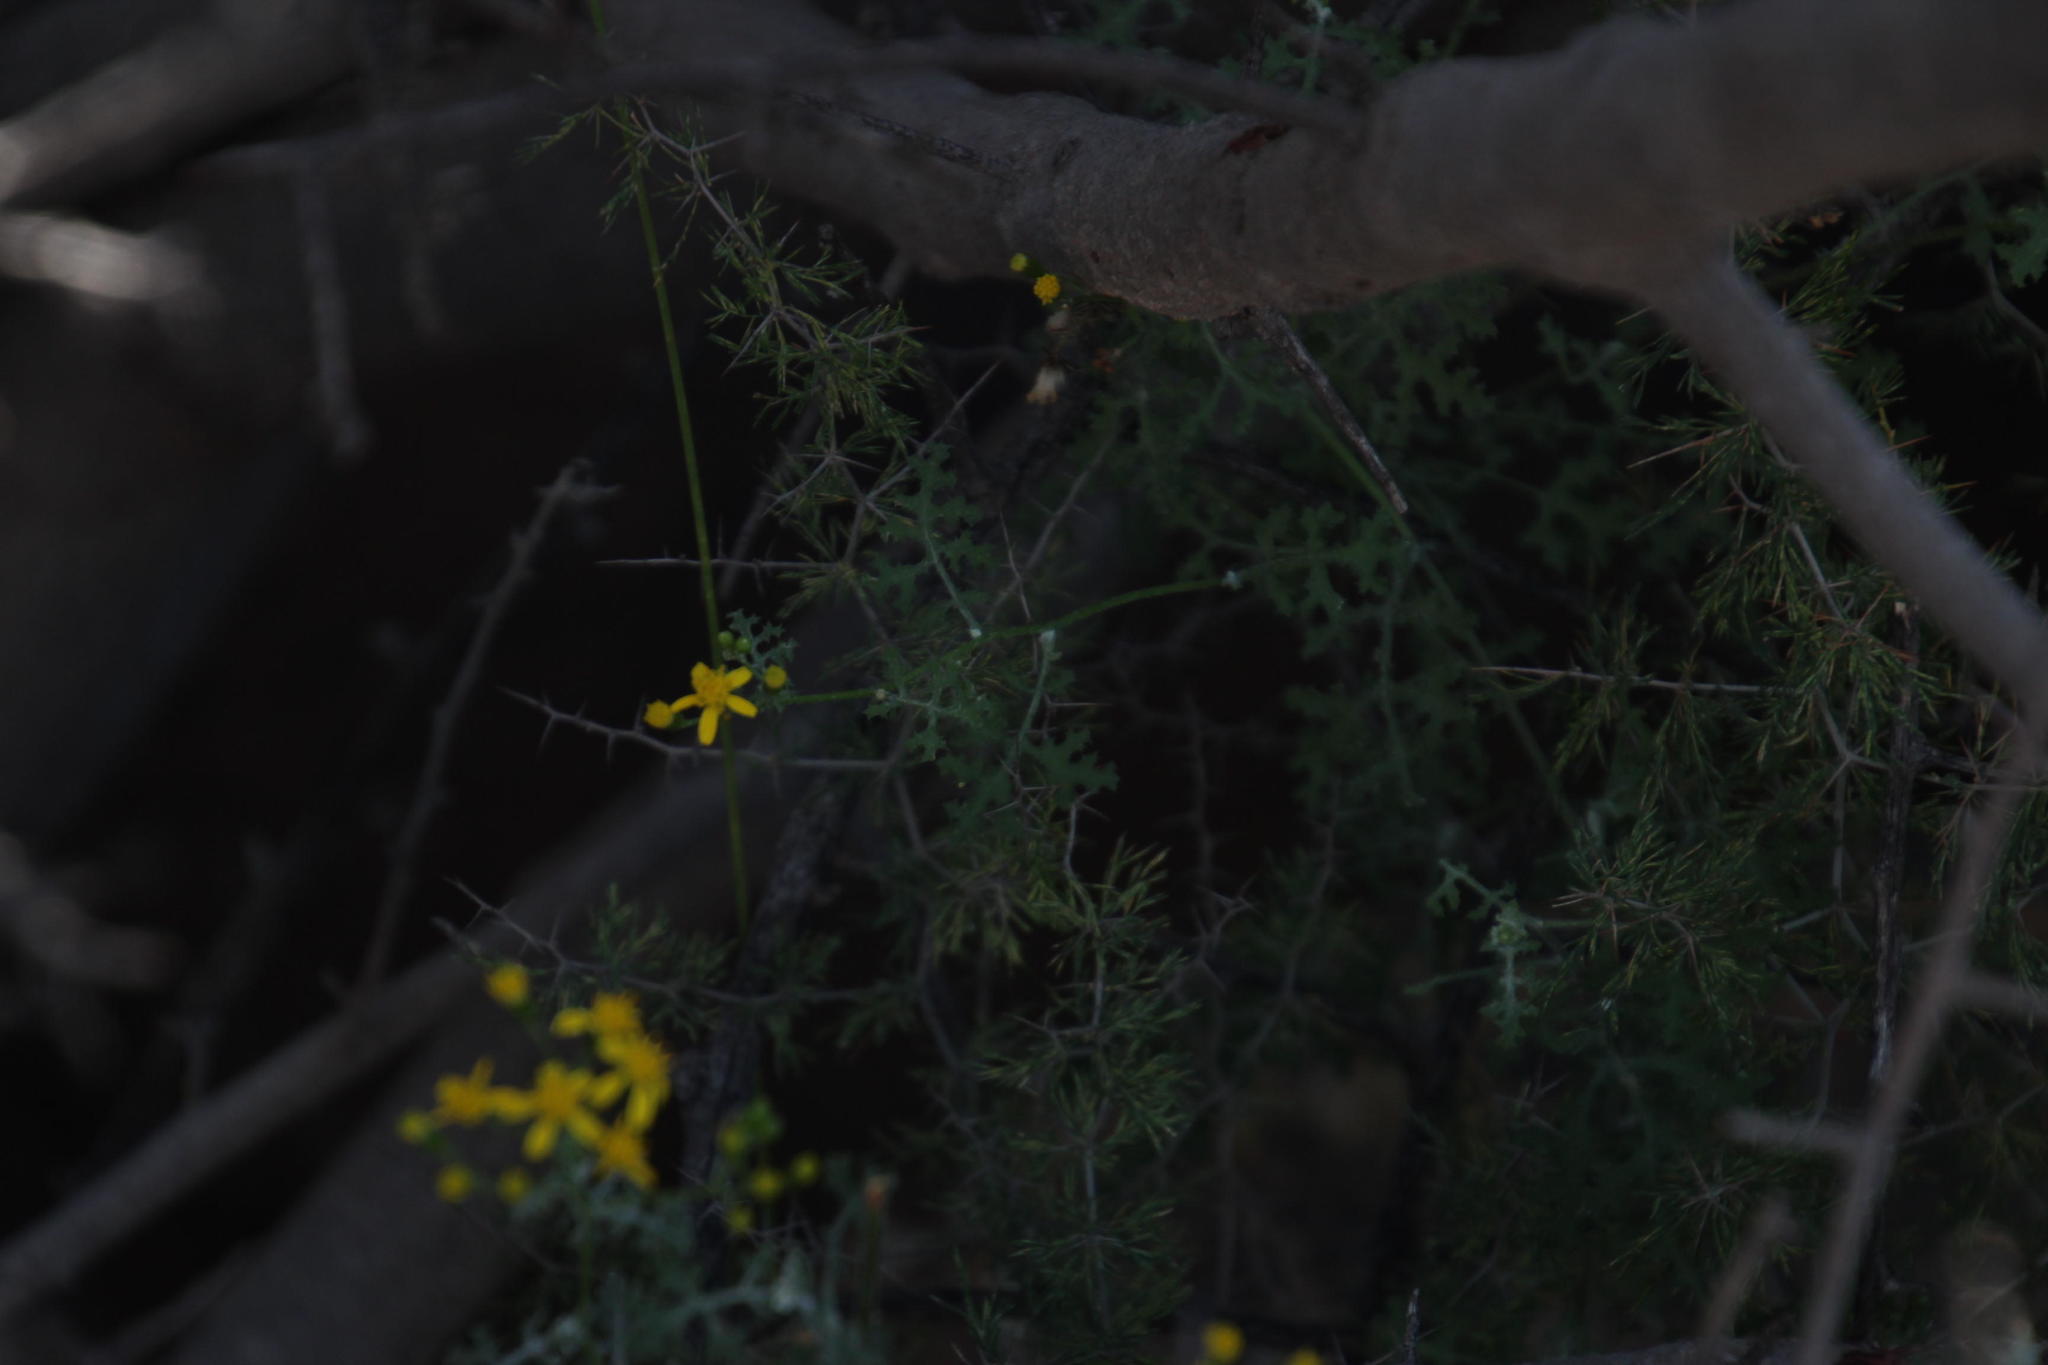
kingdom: Plantae
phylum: Tracheophyta
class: Magnoliopsida
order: Asterales
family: Asteraceae
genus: Senecio
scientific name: Senecio erysimoides
